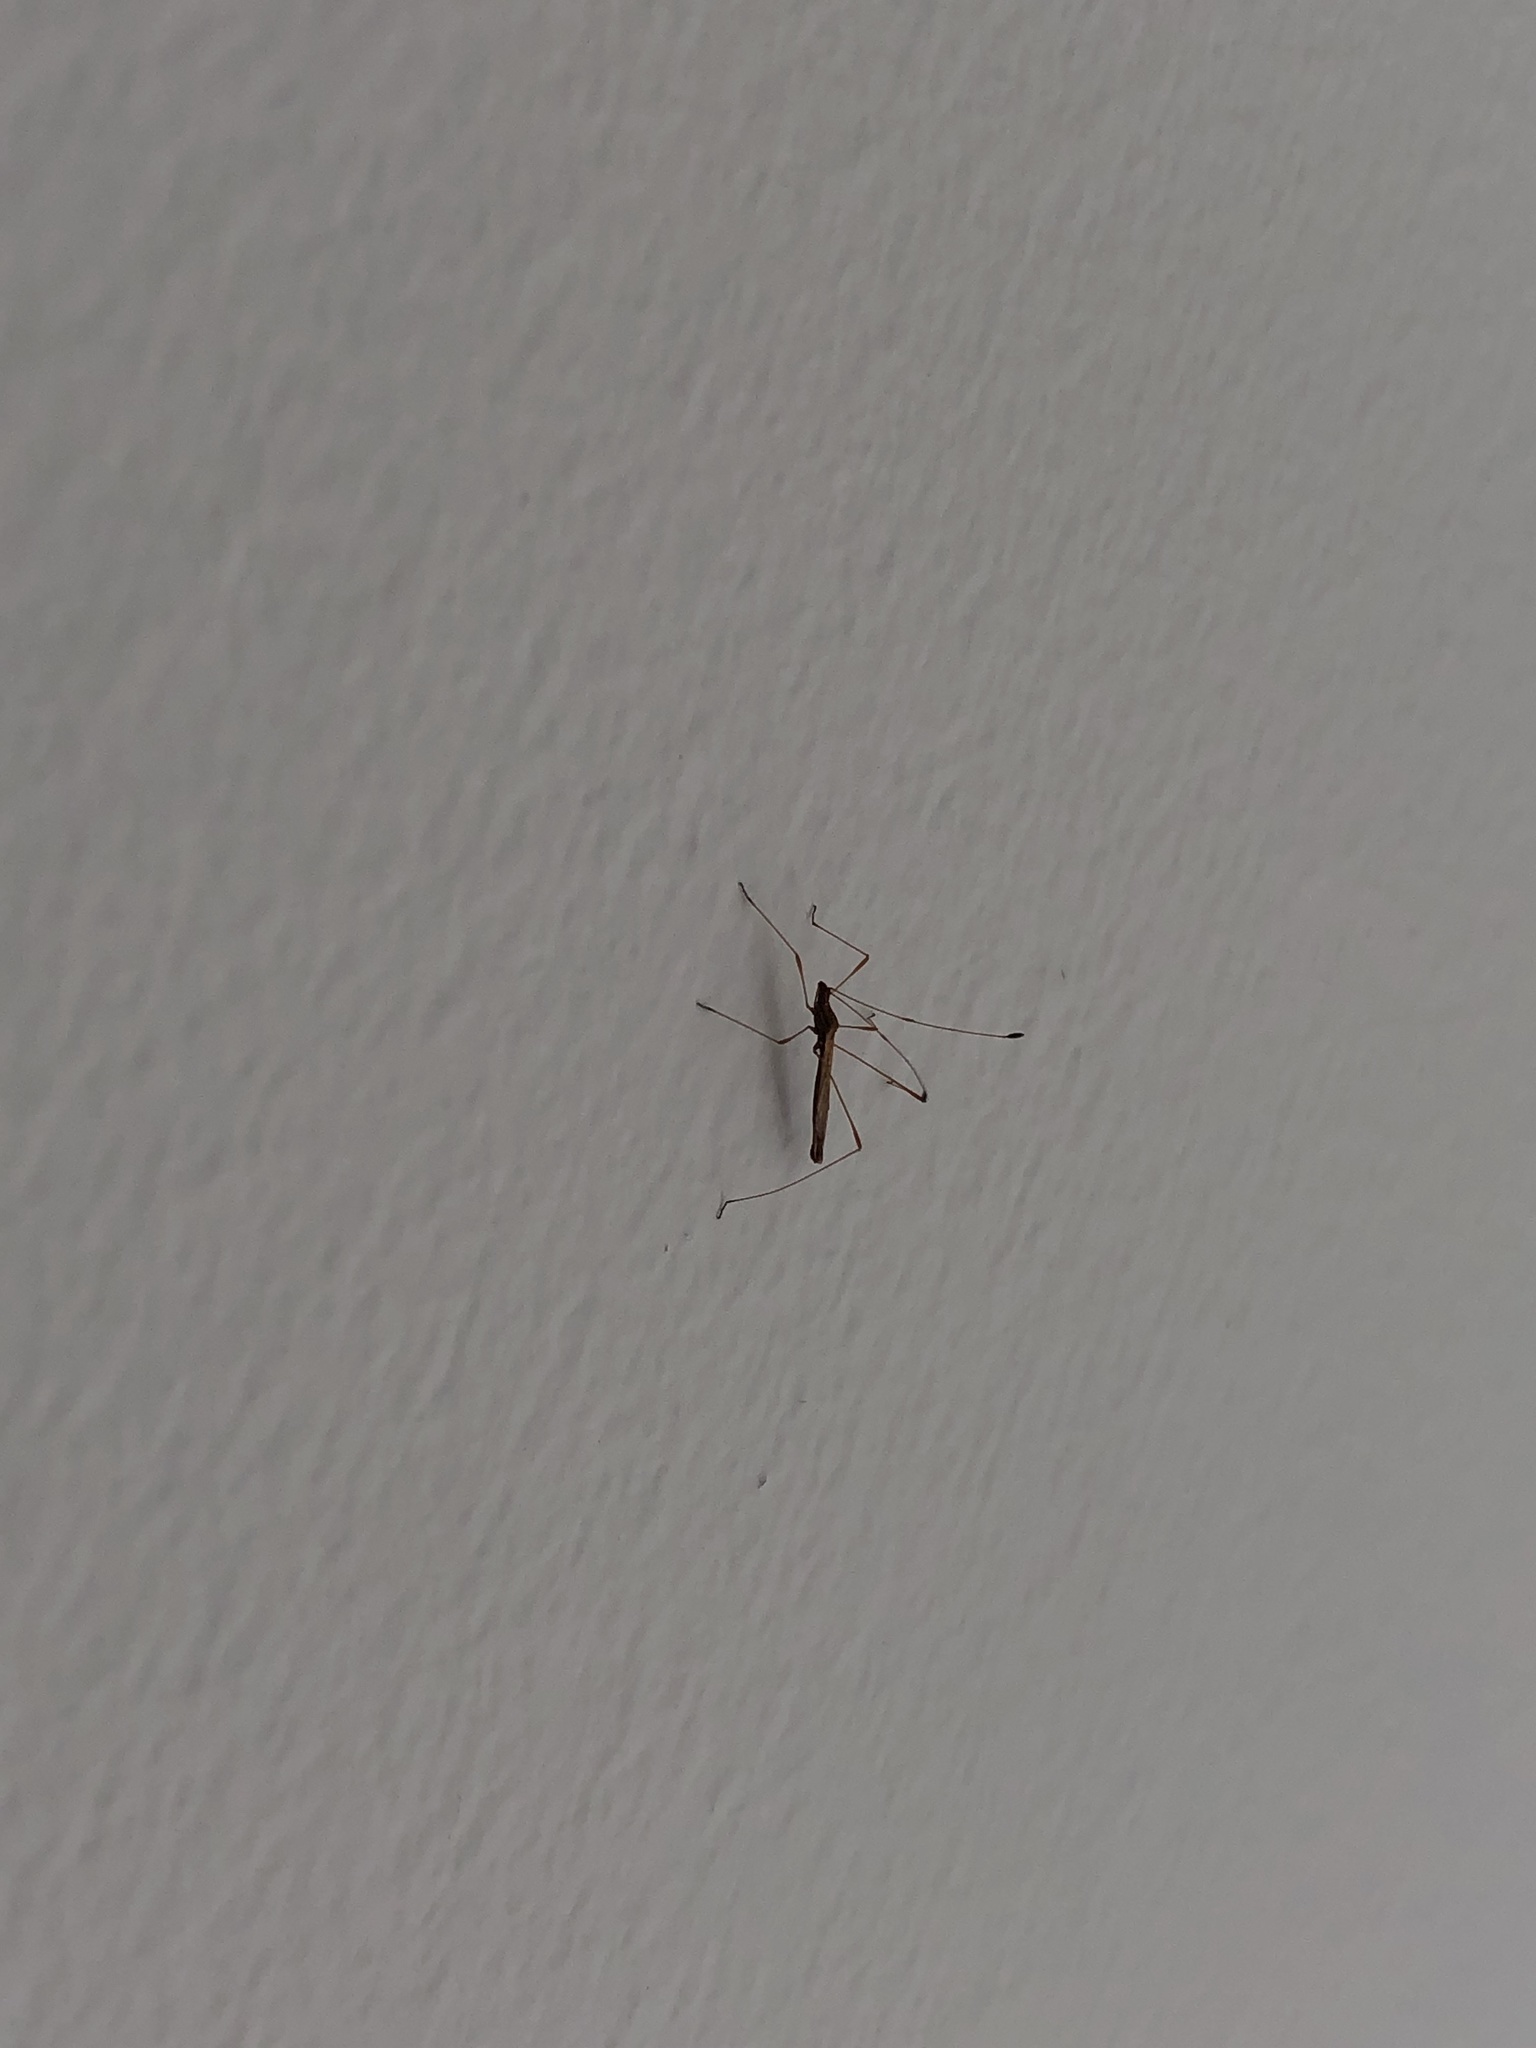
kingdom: Animalia
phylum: Arthropoda
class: Insecta
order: Hemiptera
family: Berytidae
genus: Neoneides
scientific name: Neoneides muticus
